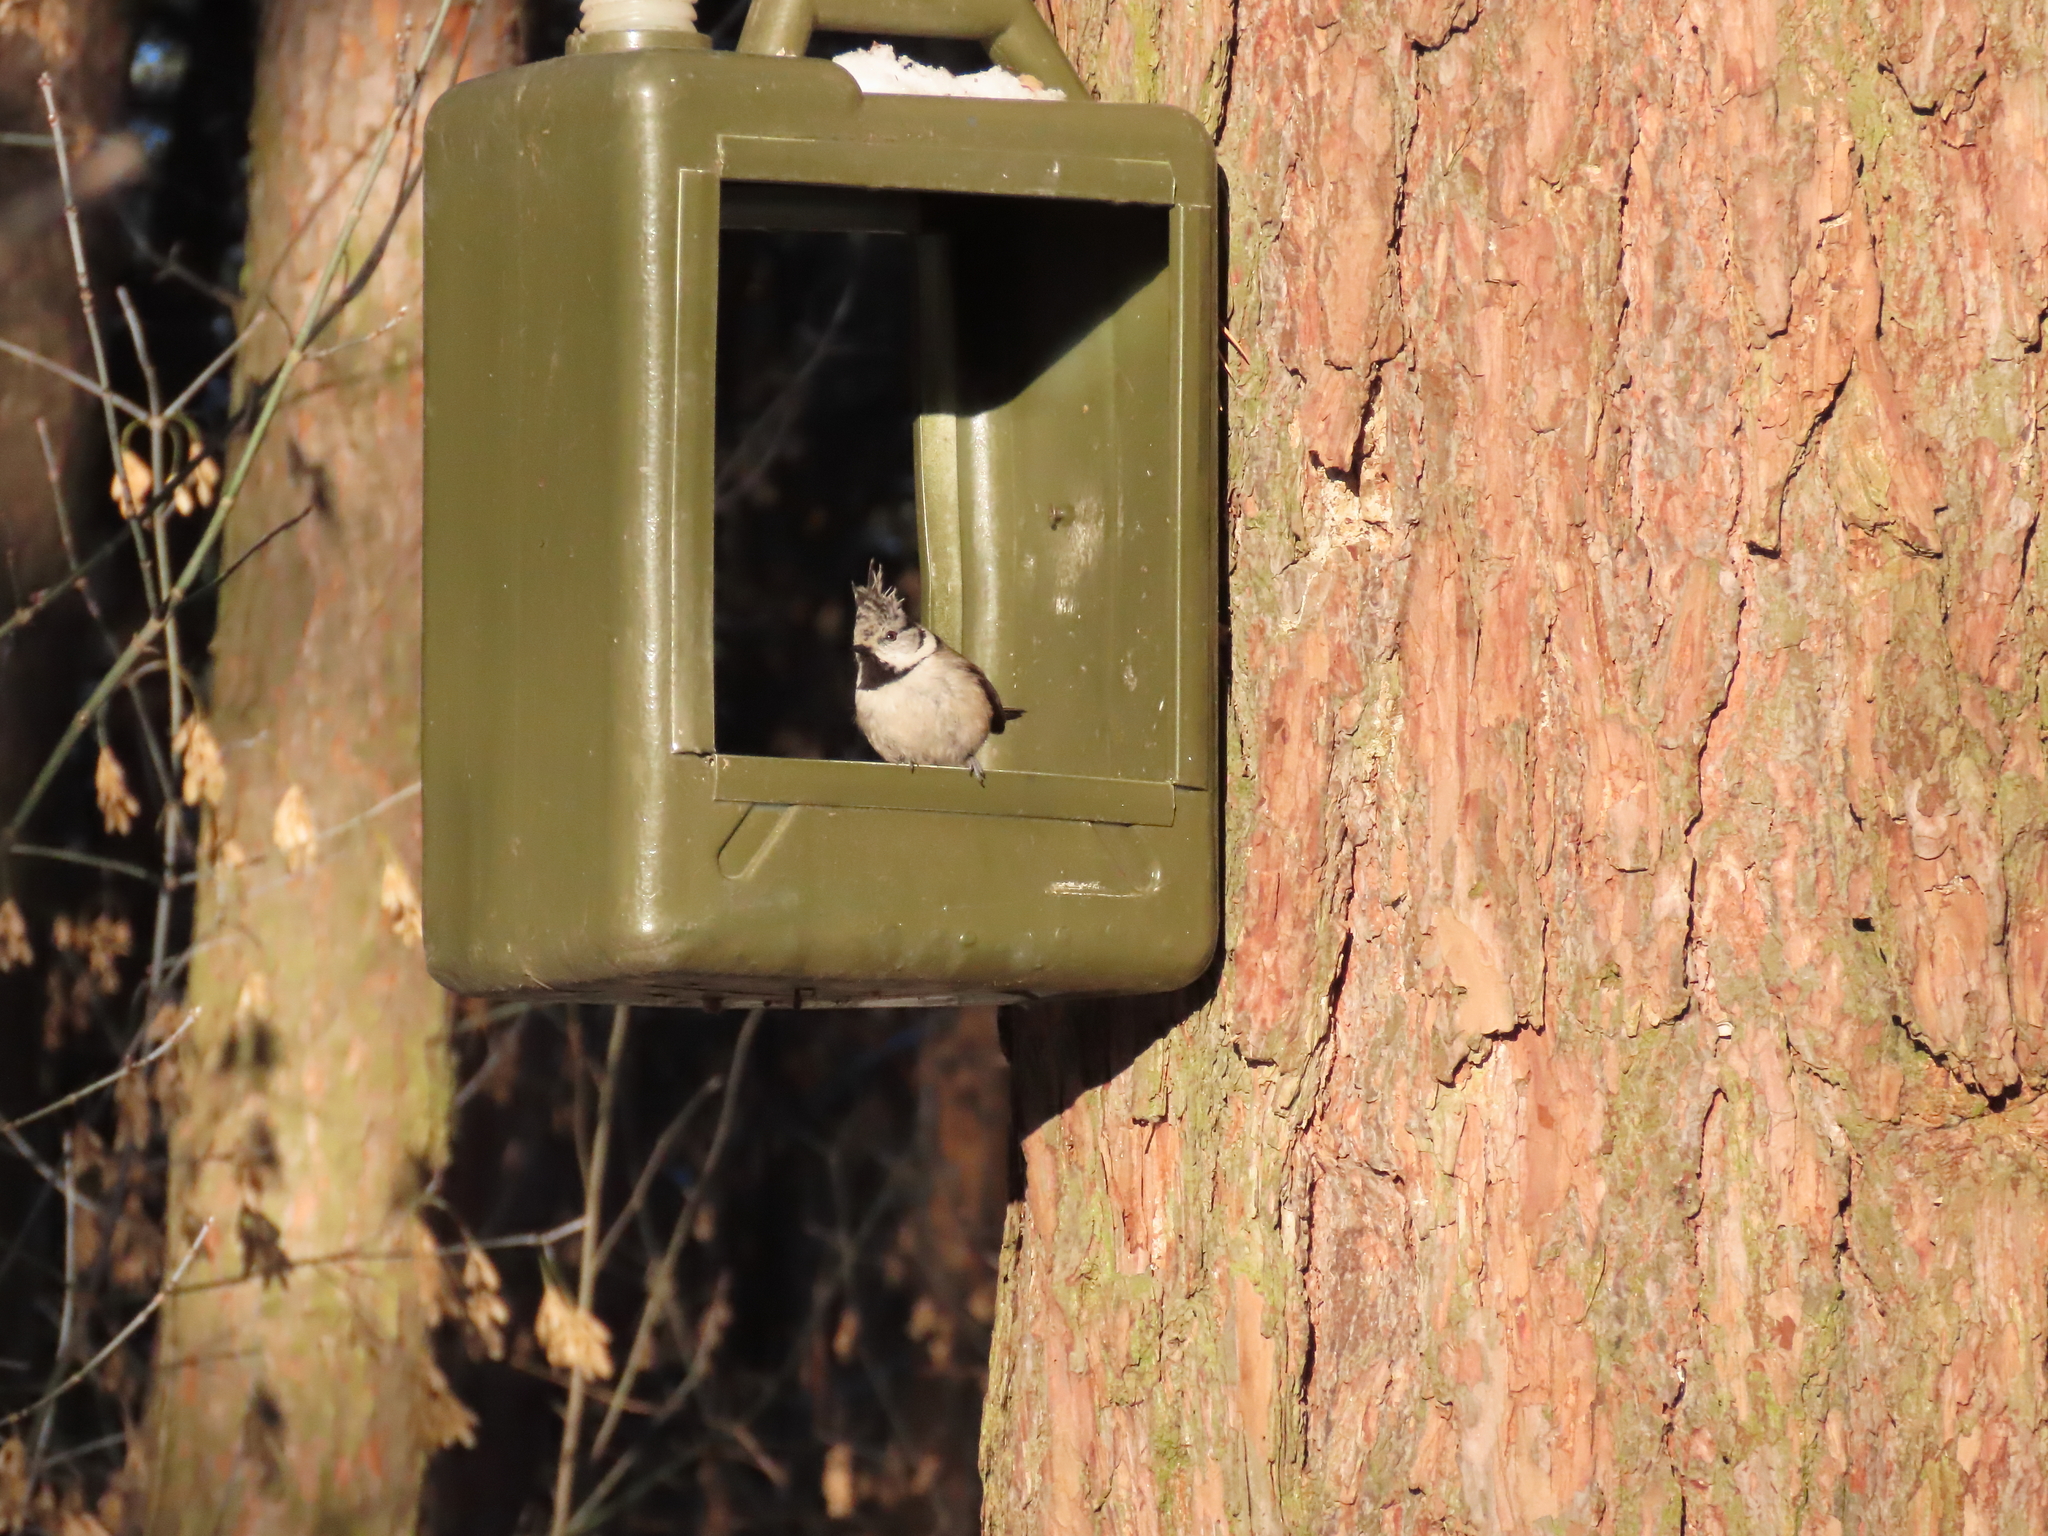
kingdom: Animalia
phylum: Chordata
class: Aves
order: Passeriformes
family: Paridae
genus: Lophophanes
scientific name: Lophophanes cristatus
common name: European crested tit
